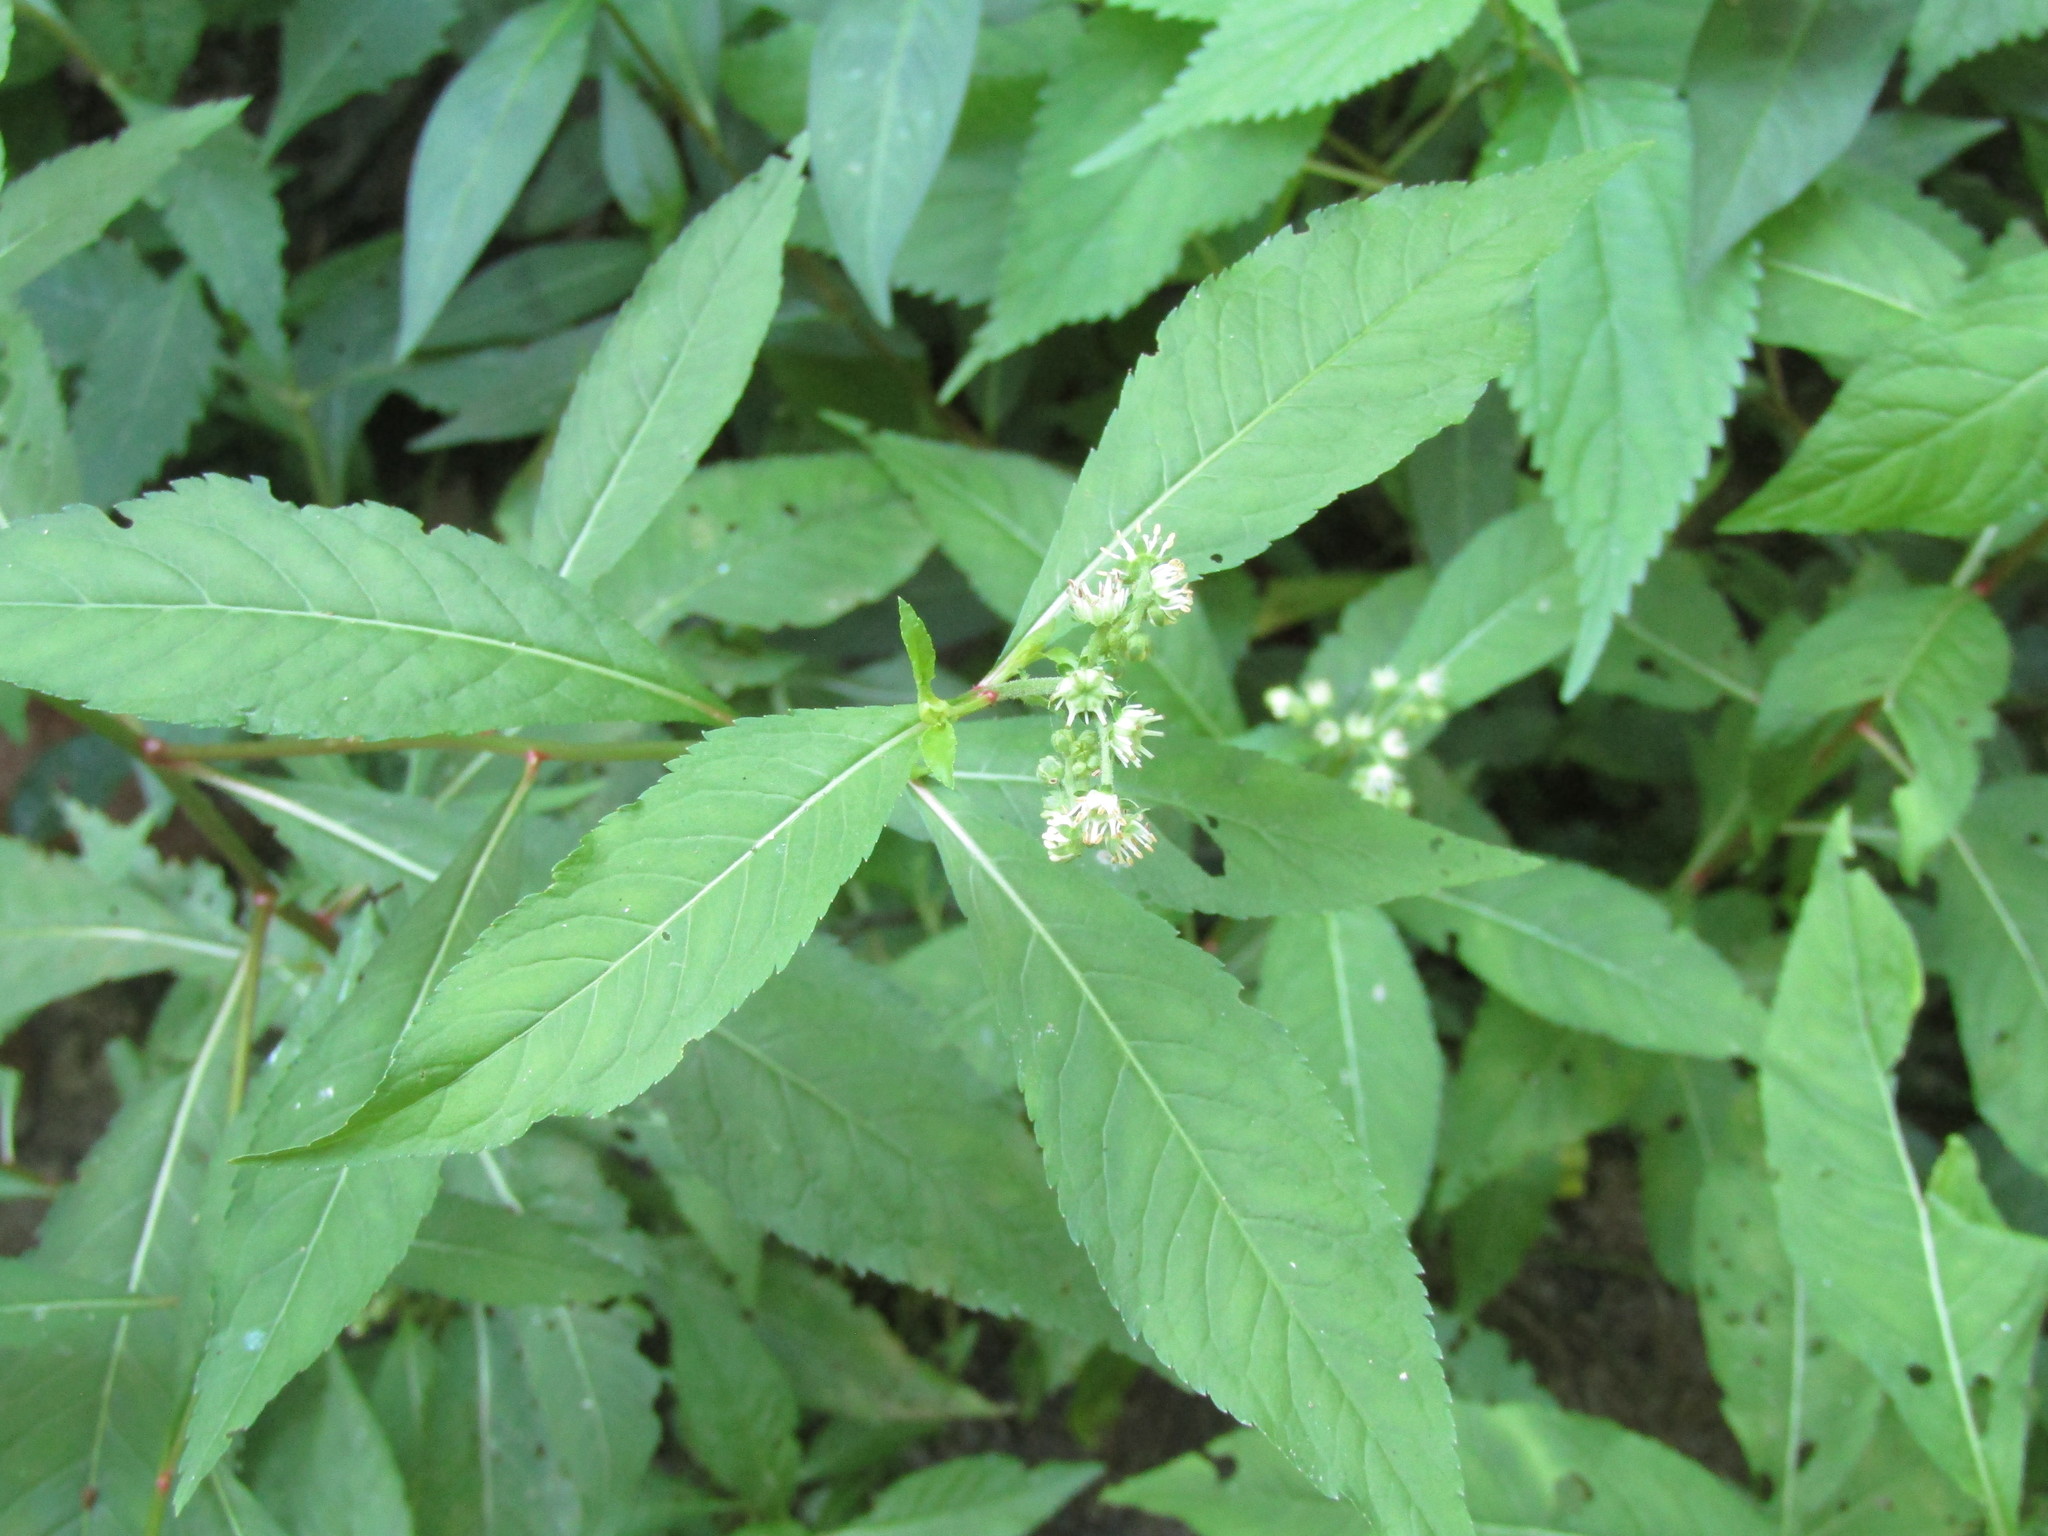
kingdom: Plantae
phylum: Tracheophyta
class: Magnoliopsida
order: Saxifragales
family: Penthoraceae
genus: Penthorum
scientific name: Penthorum sedoides
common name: Ditch stonecrop
